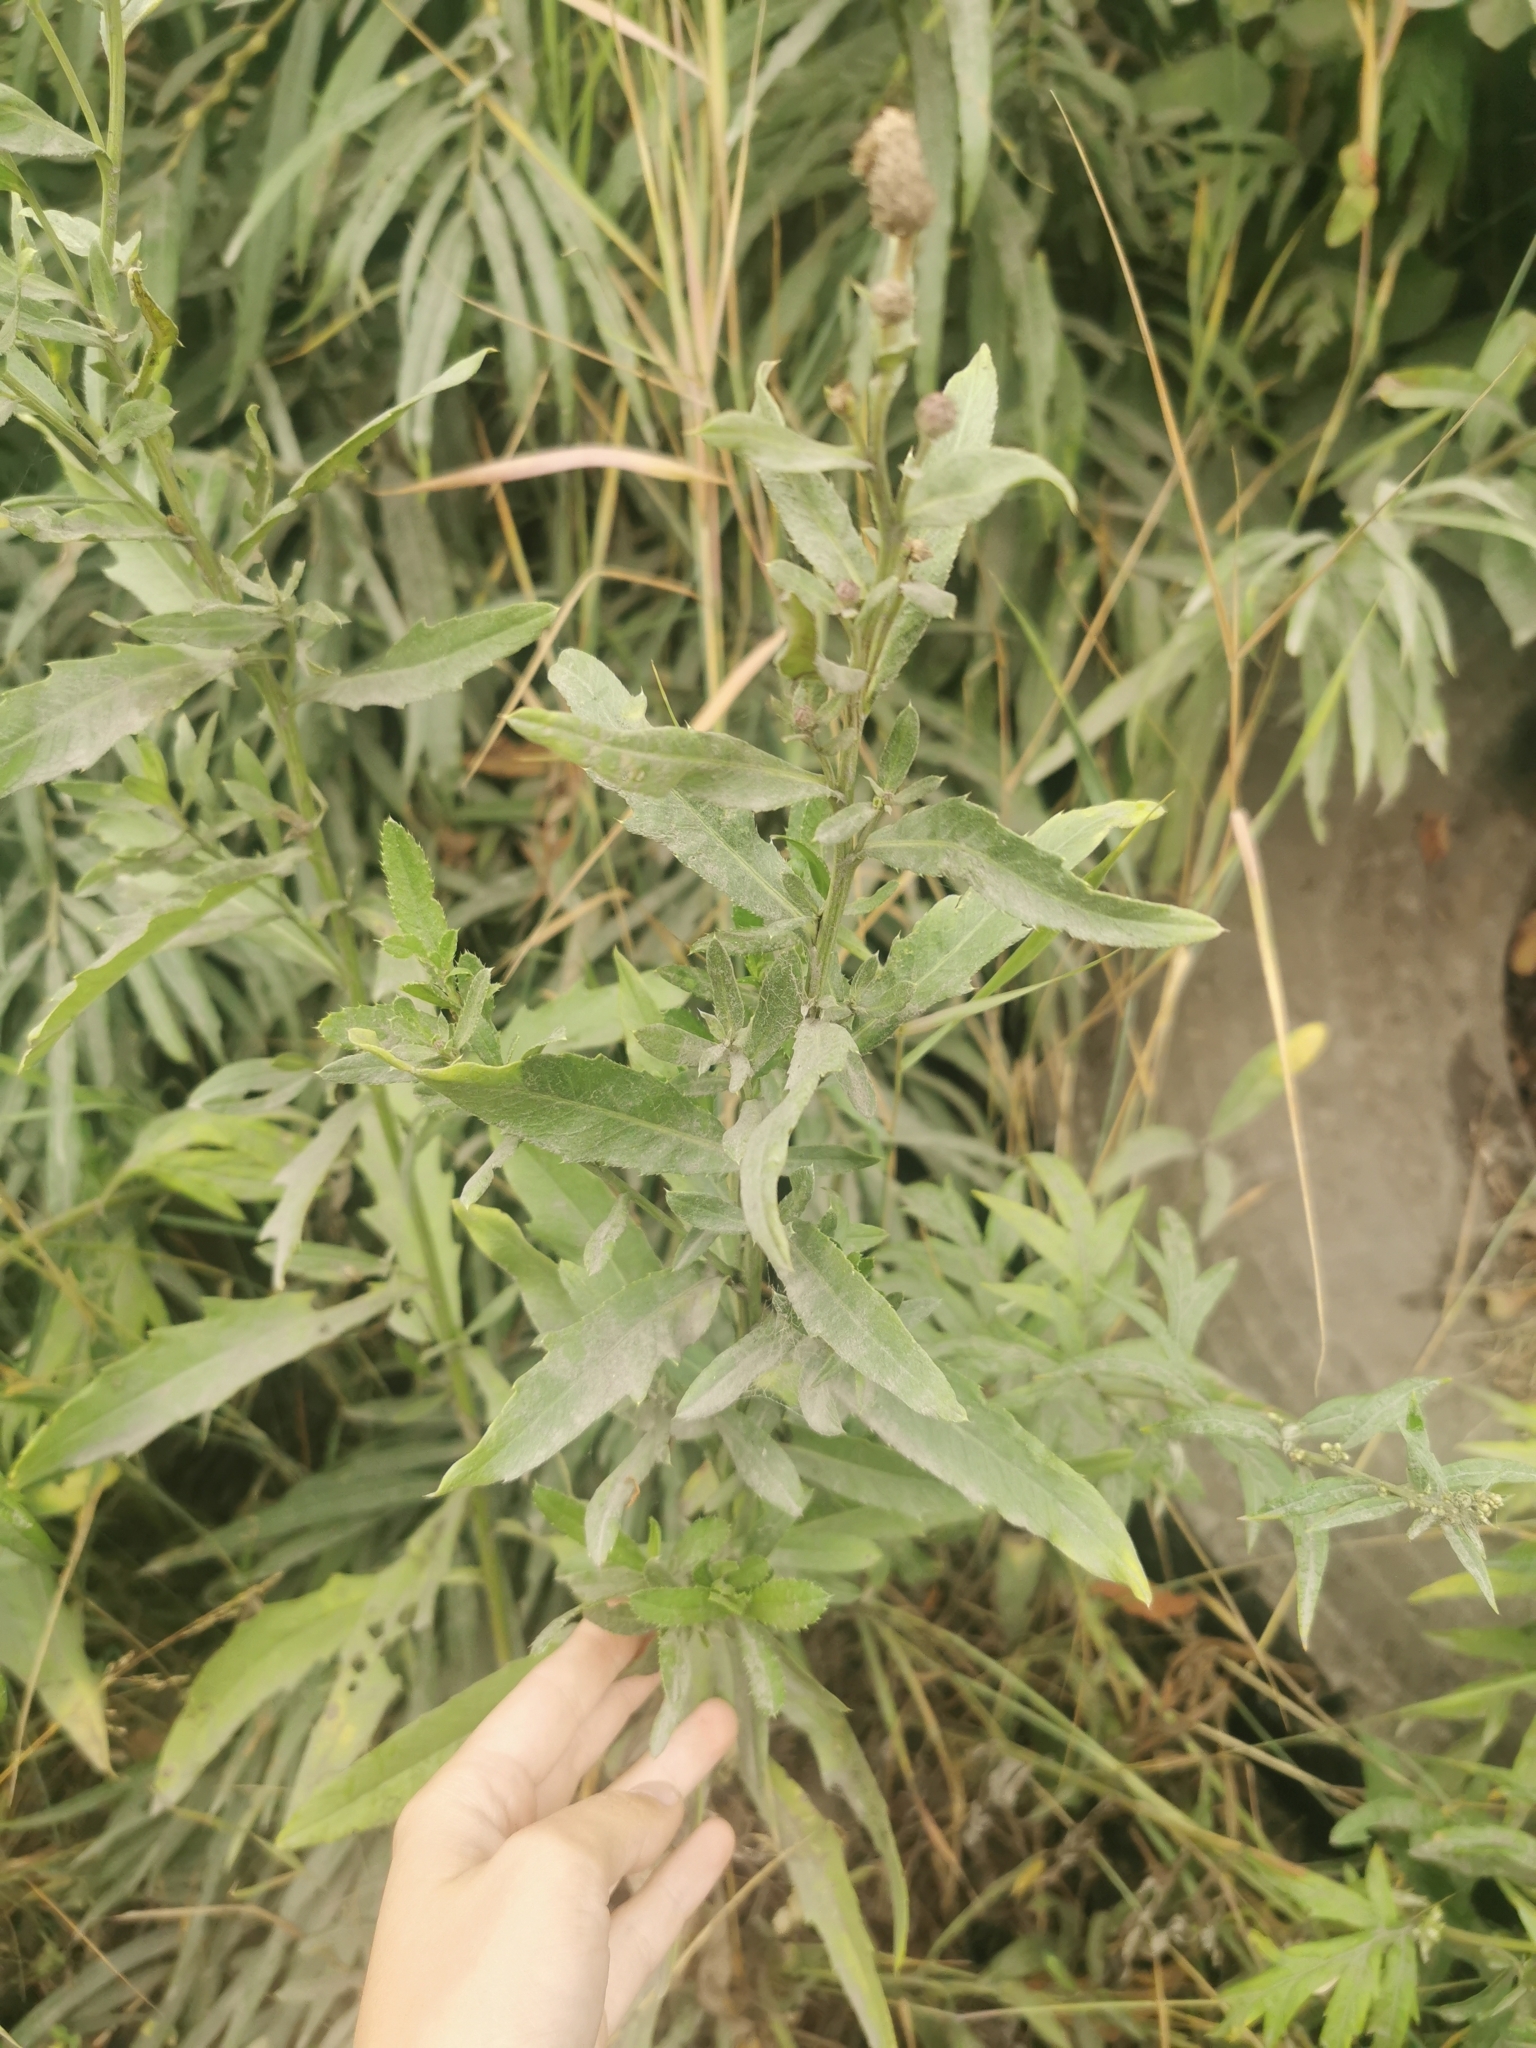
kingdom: Plantae
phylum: Tracheophyta
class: Magnoliopsida
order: Asterales
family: Asteraceae
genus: Cirsium
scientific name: Cirsium arvense
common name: Creeping thistle
